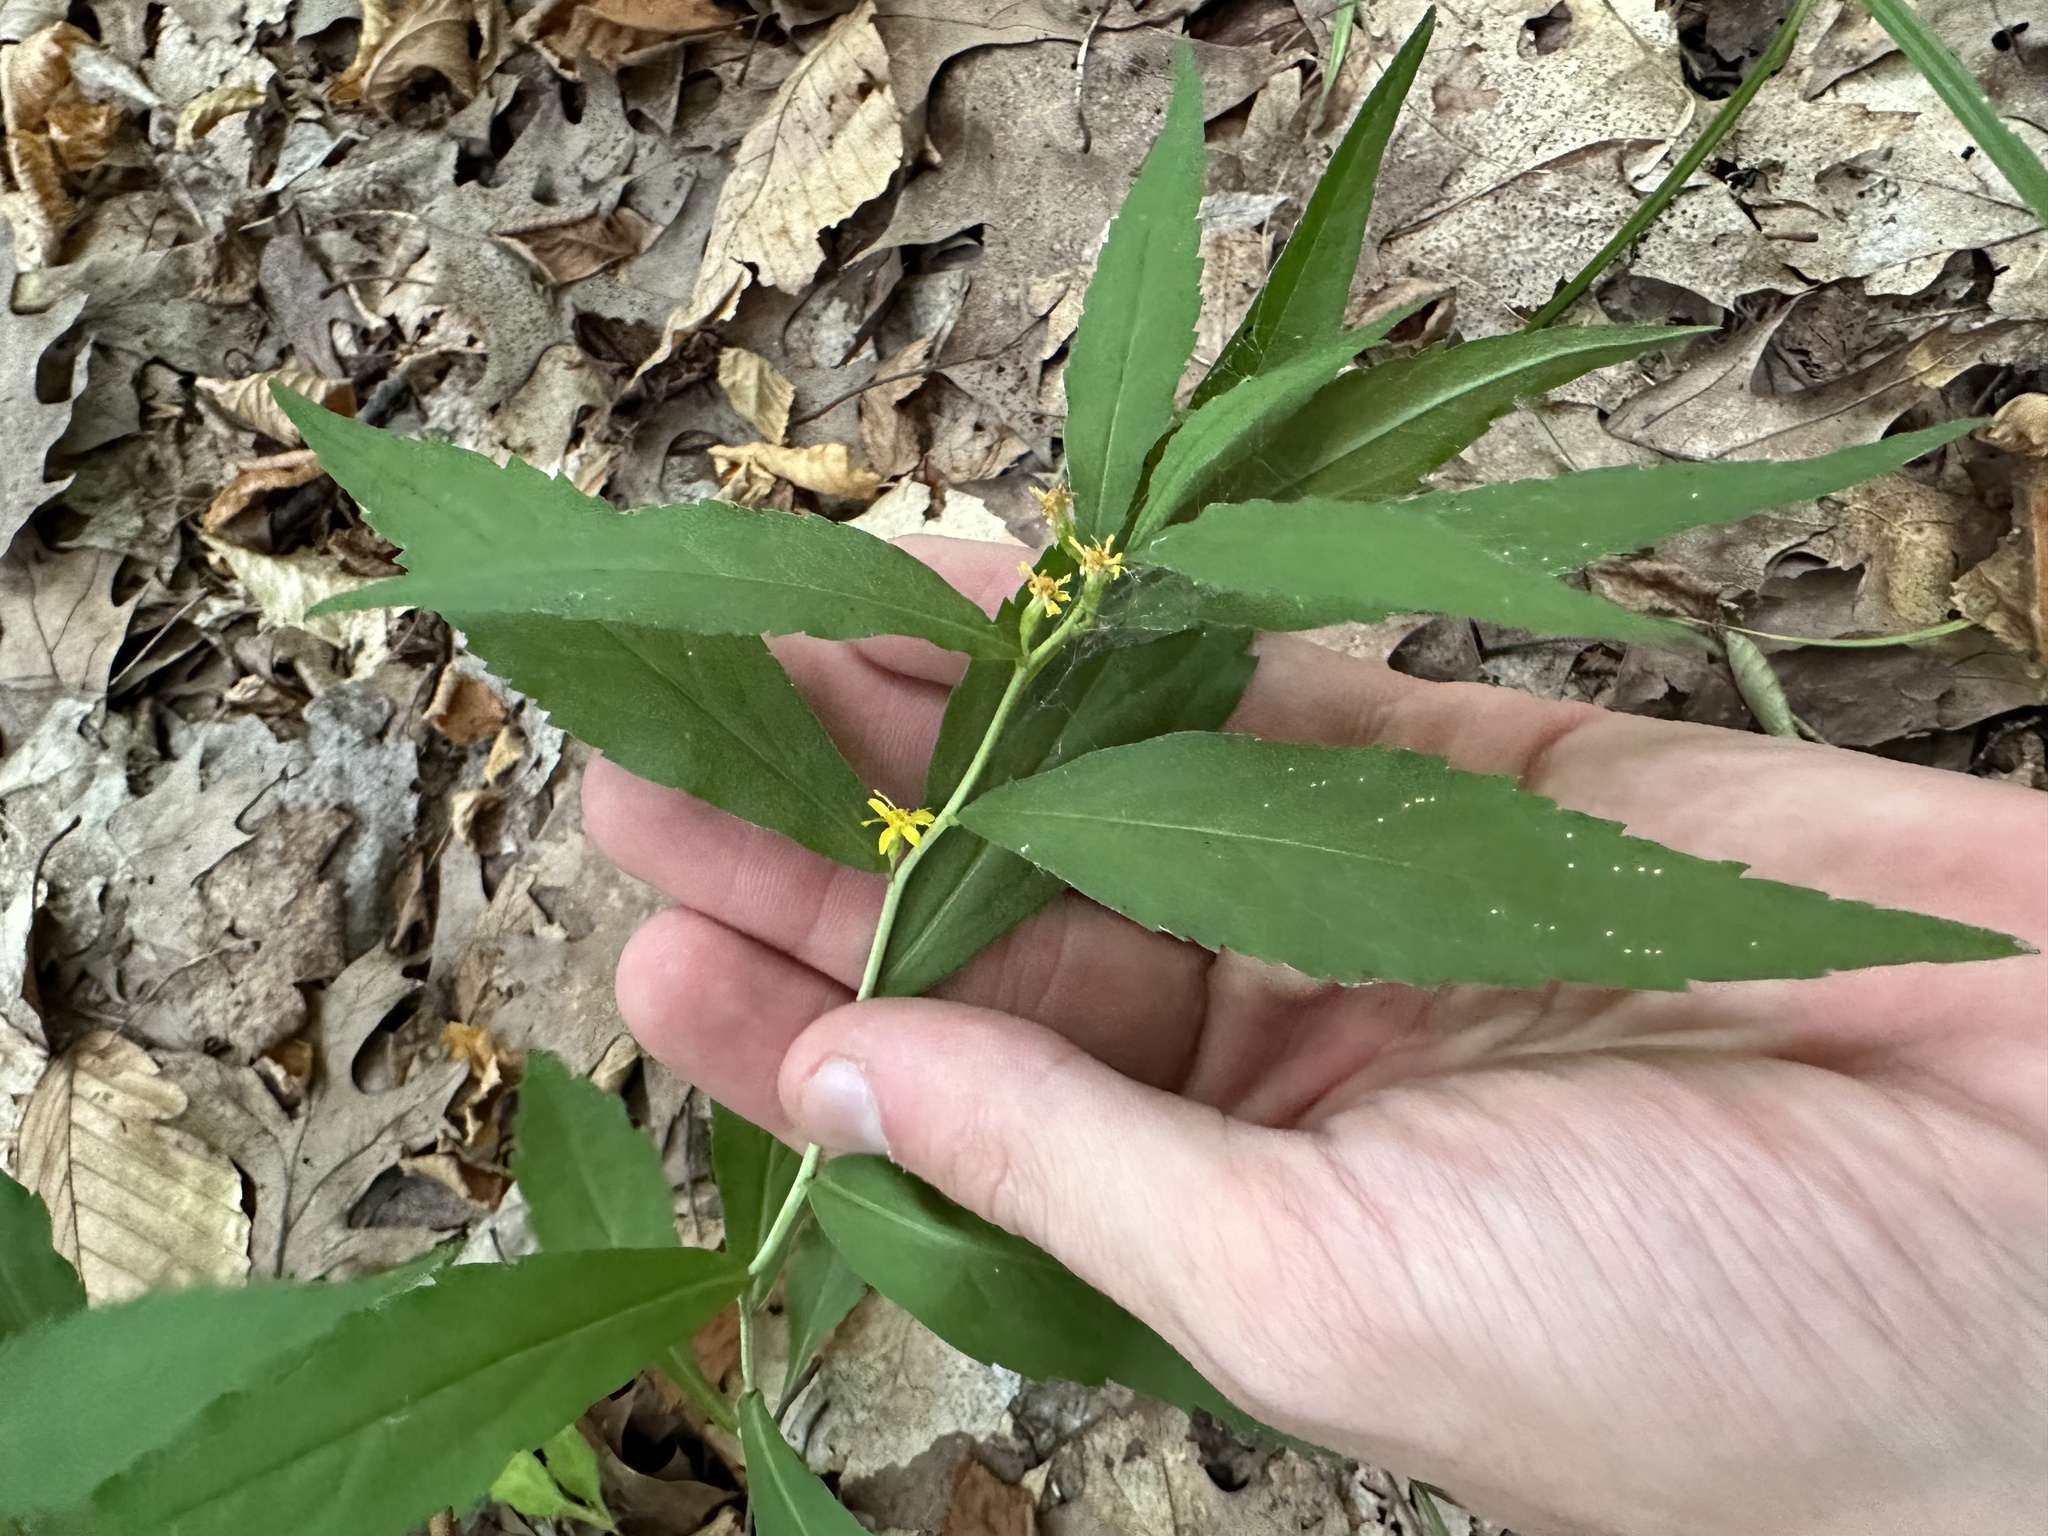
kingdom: Plantae
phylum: Tracheophyta
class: Magnoliopsida
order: Asterales
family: Asteraceae
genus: Solidago
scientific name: Solidago caesia
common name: Woodland goldenrod
